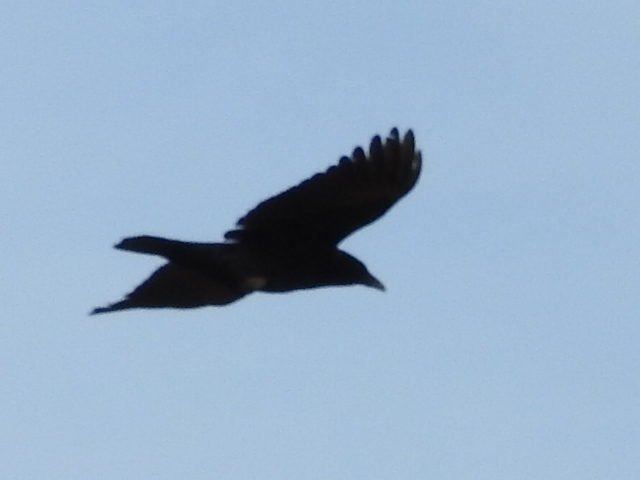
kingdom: Animalia
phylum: Chordata
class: Aves
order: Passeriformes
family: Corvidae
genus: Corvus
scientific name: Corvus brachyrhynchos
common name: American crow
